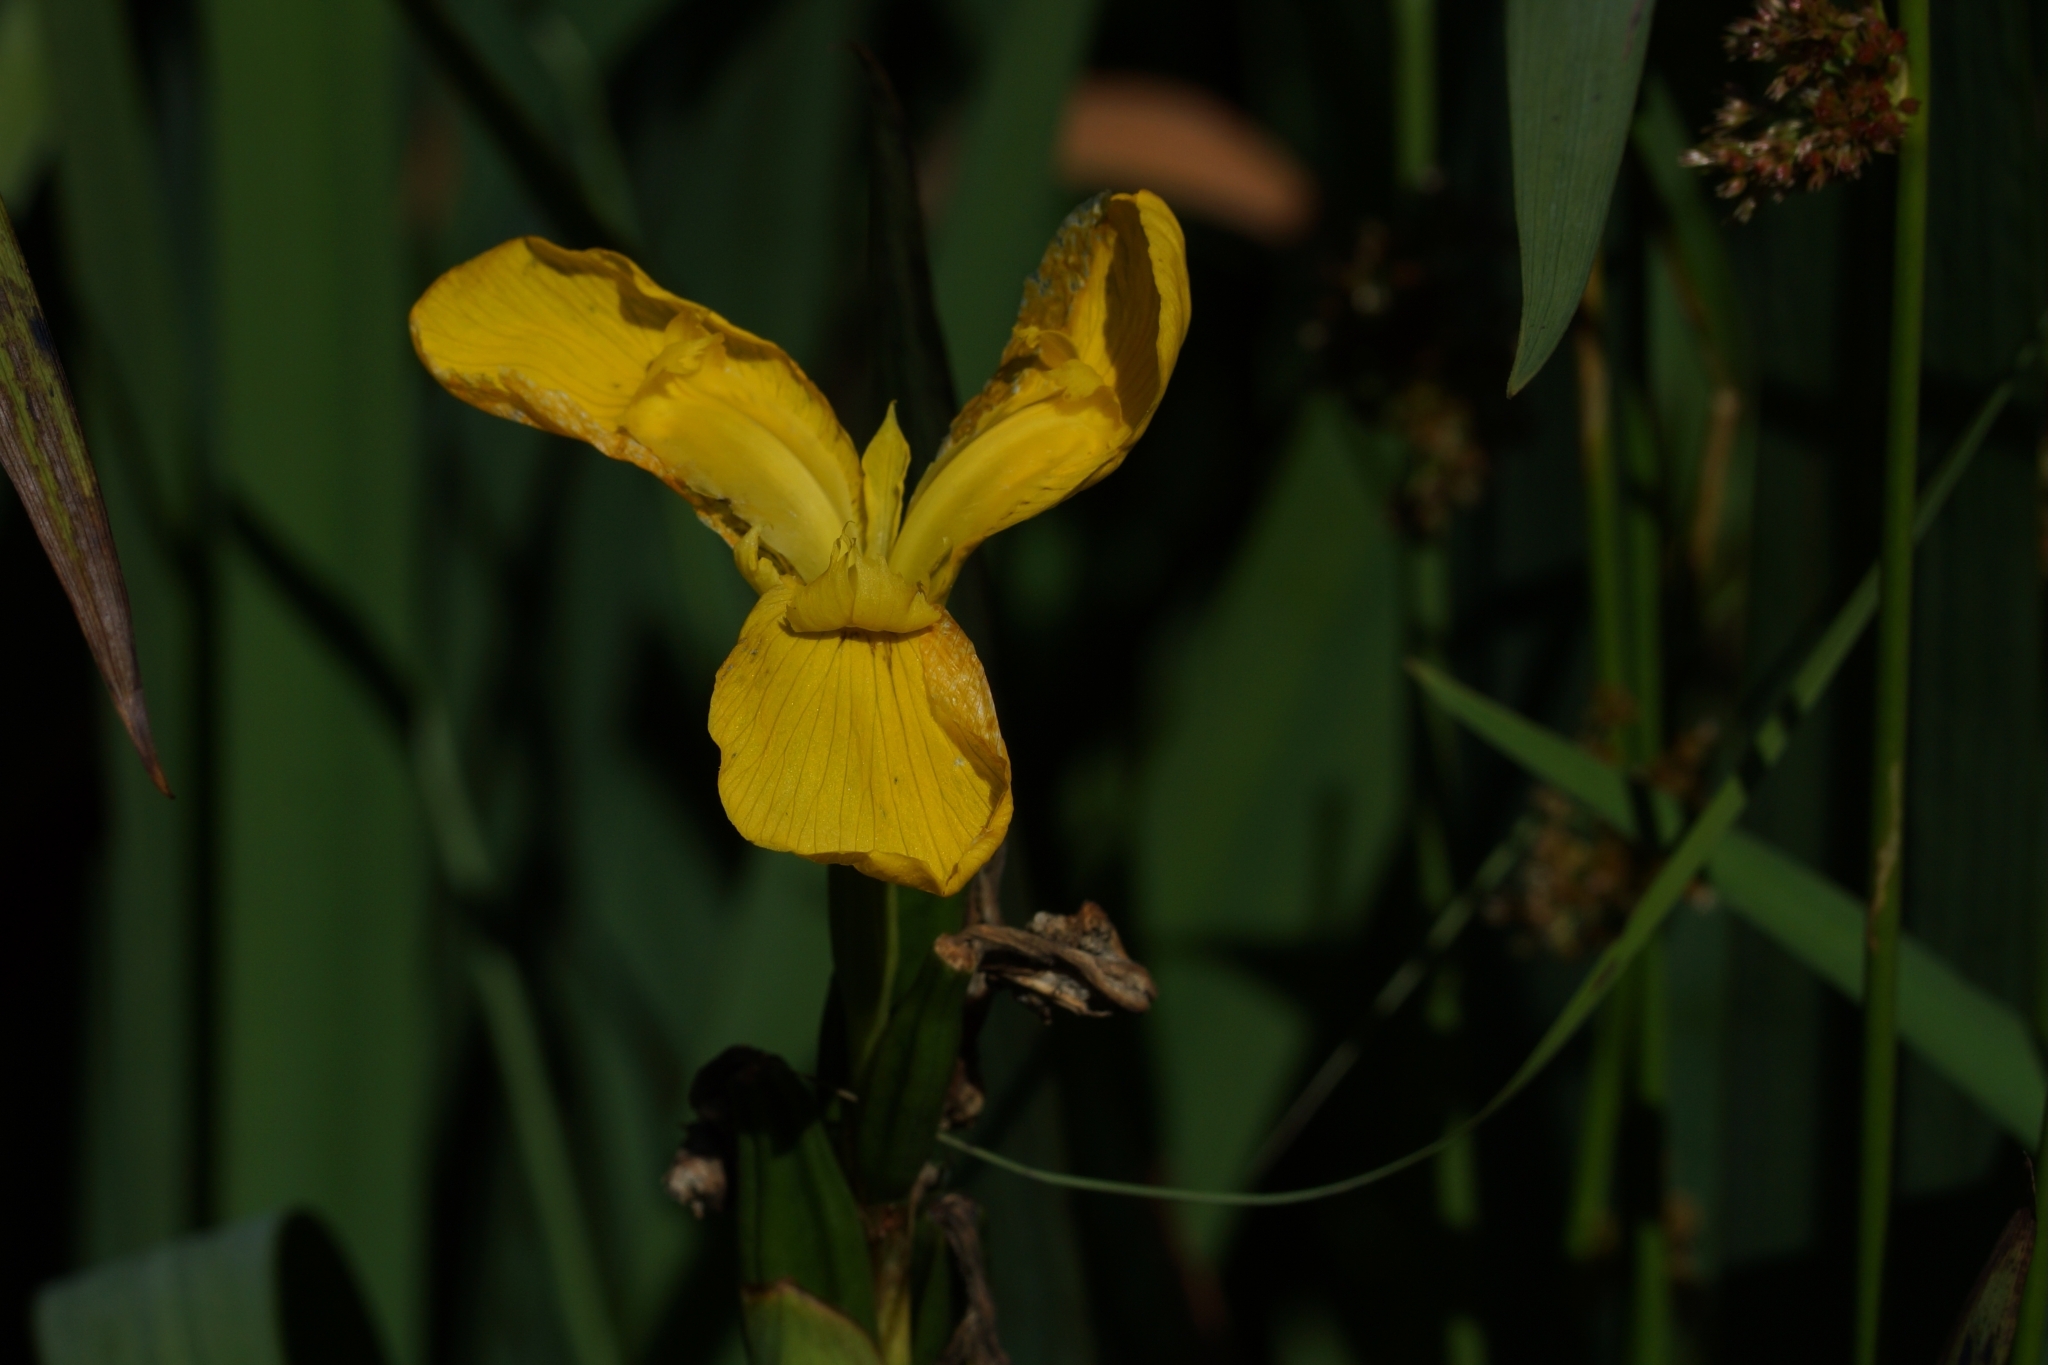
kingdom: Plantae
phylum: Tracheophyta
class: Liliopsida
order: Asparagales
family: Iridaceae
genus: Iris
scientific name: Iris pseudacorus
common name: Yellow flag
